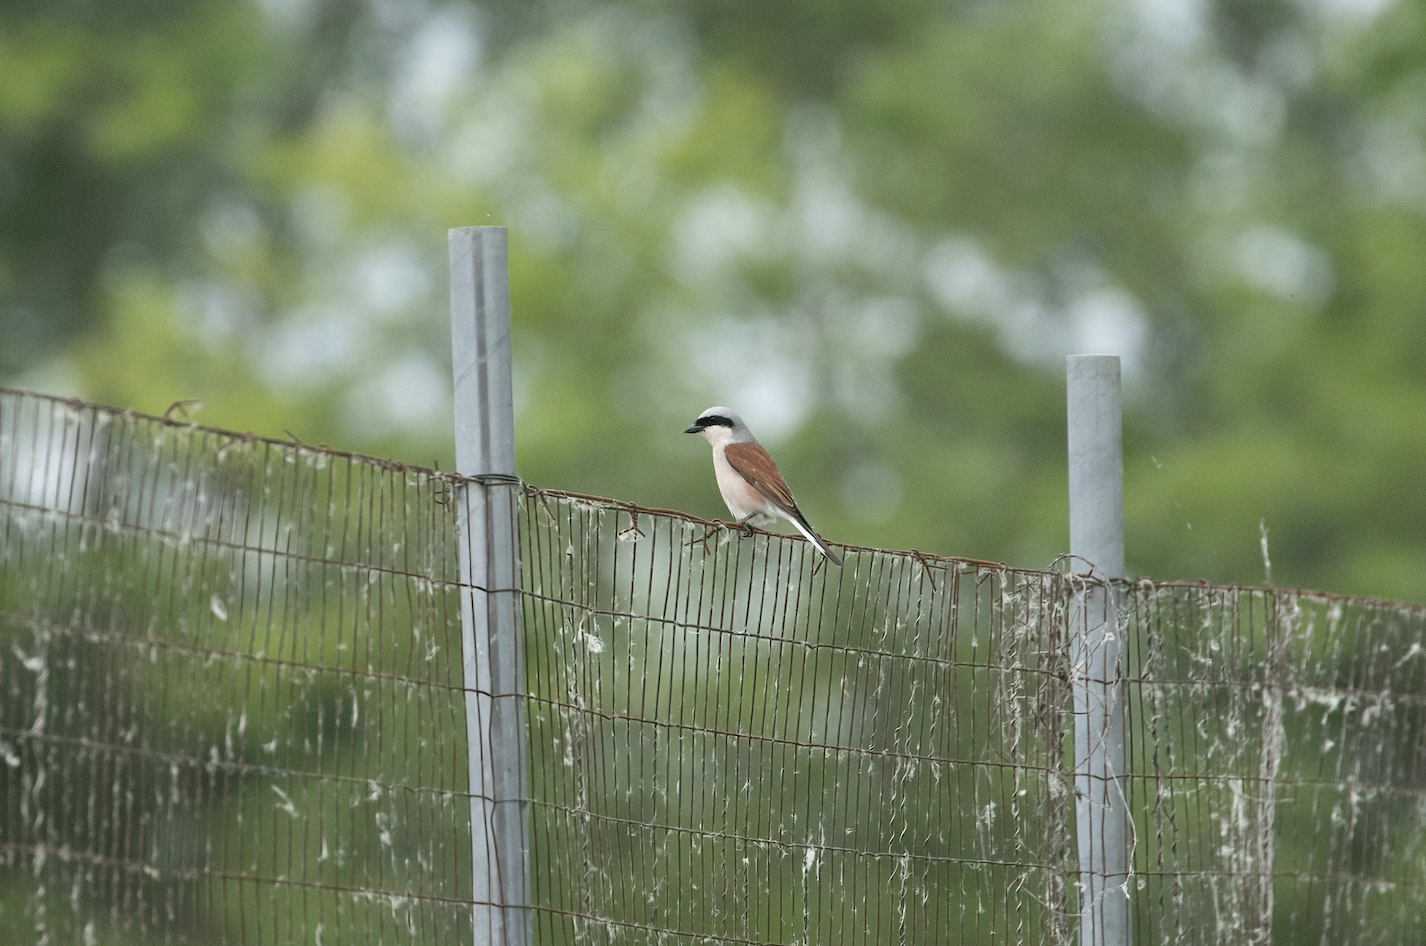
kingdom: Animalia
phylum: Chordata
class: Aves
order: Passeriformes
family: Laniidae
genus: Lanius
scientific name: Lanius collurio
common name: Red-backed shrike
